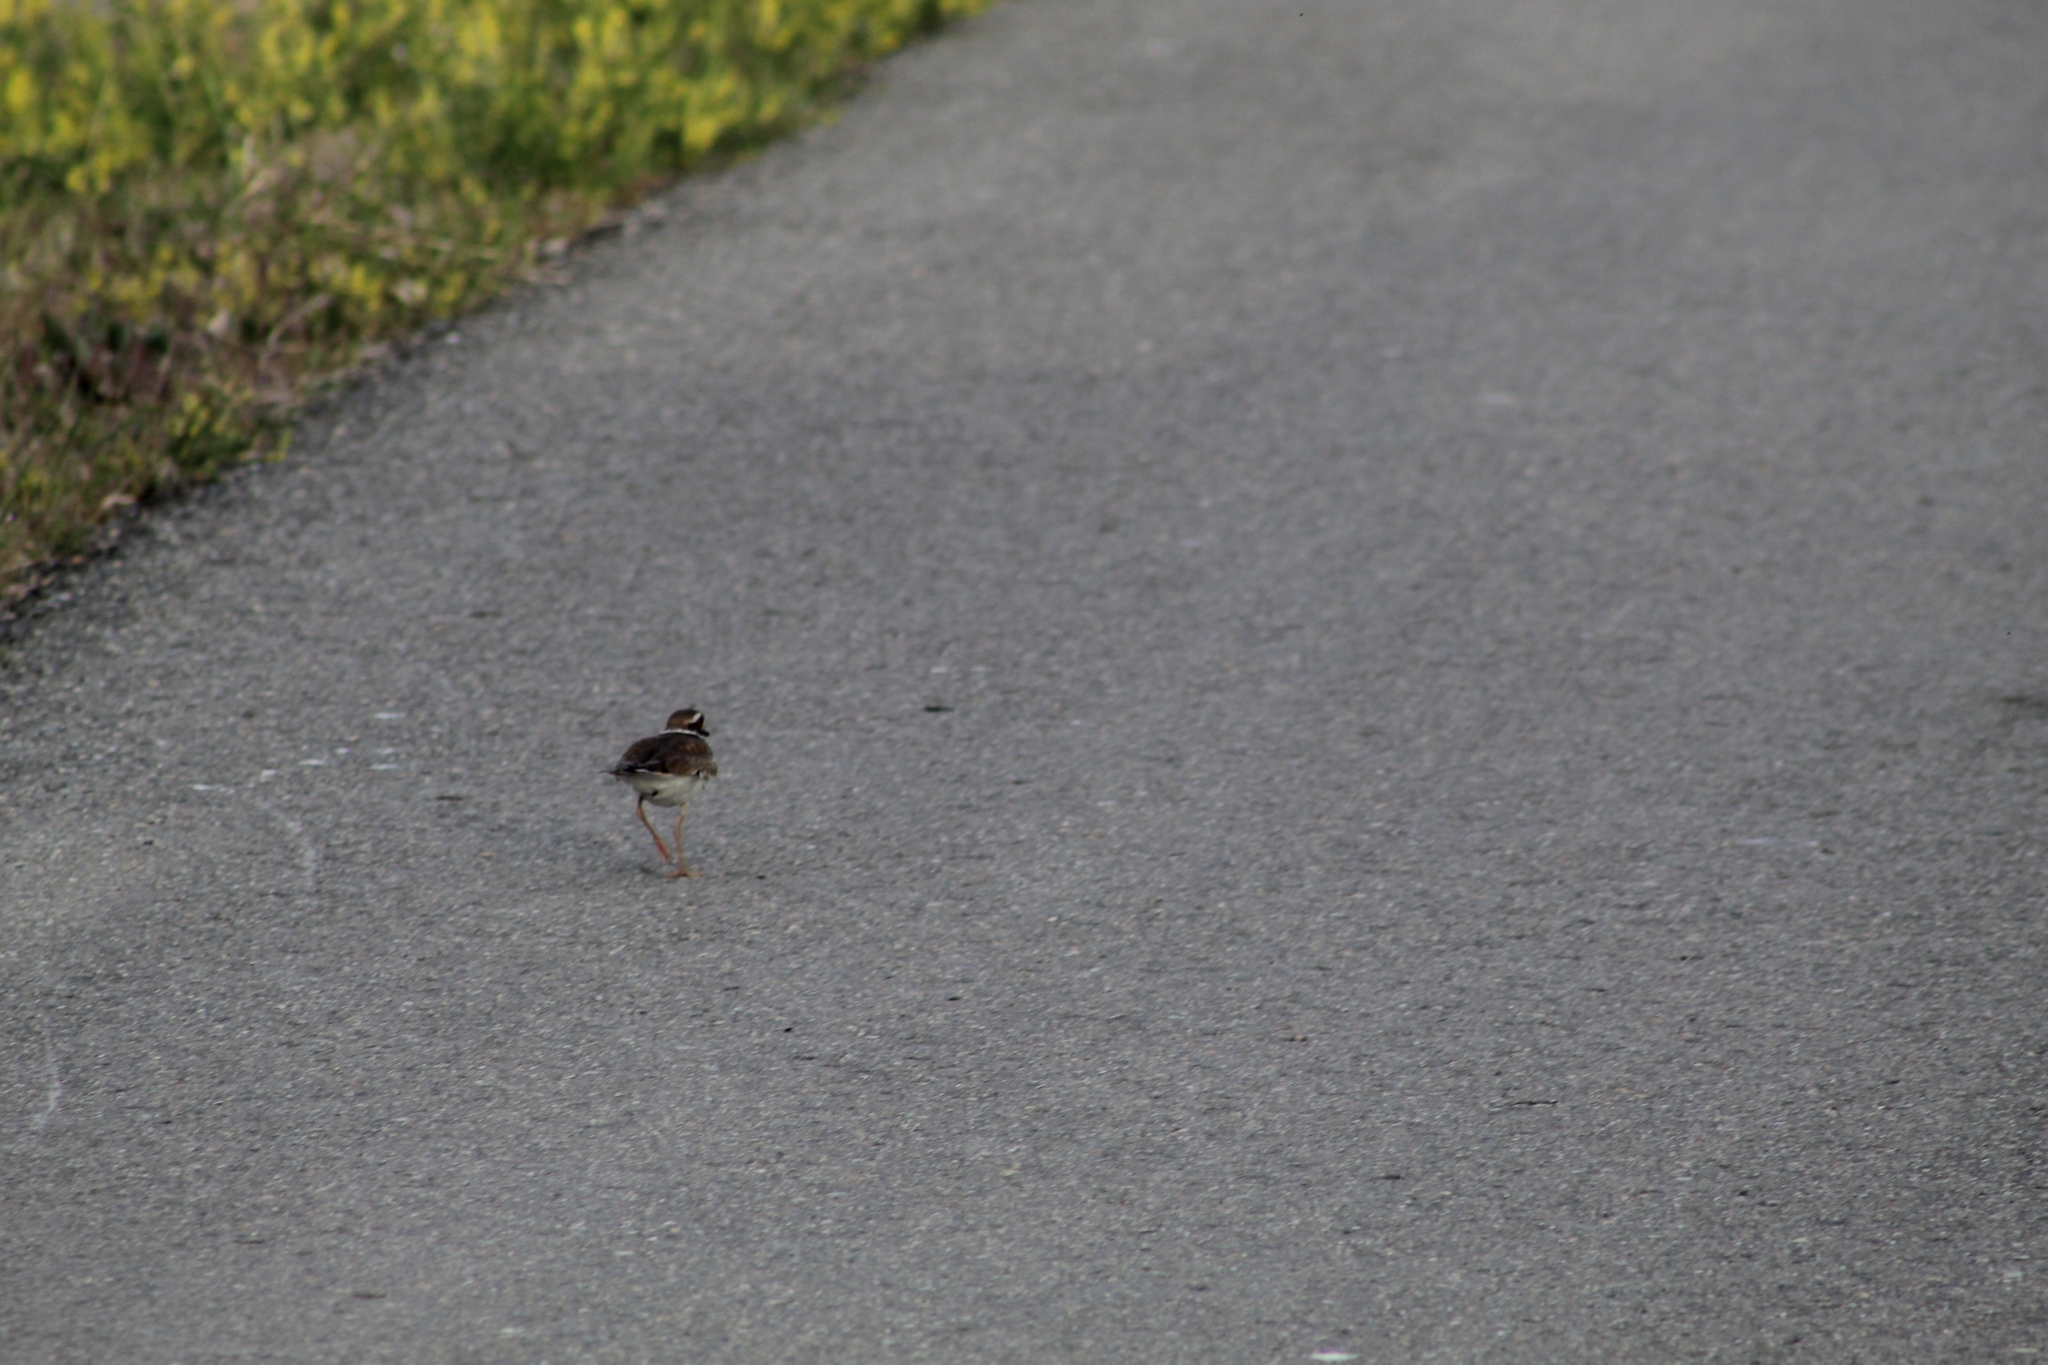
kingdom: Animalia
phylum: Chordata
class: Aves
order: Charadriiformes
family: Charadriidae
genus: Charadrius
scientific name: Charadrius vociferus
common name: Killdeer
